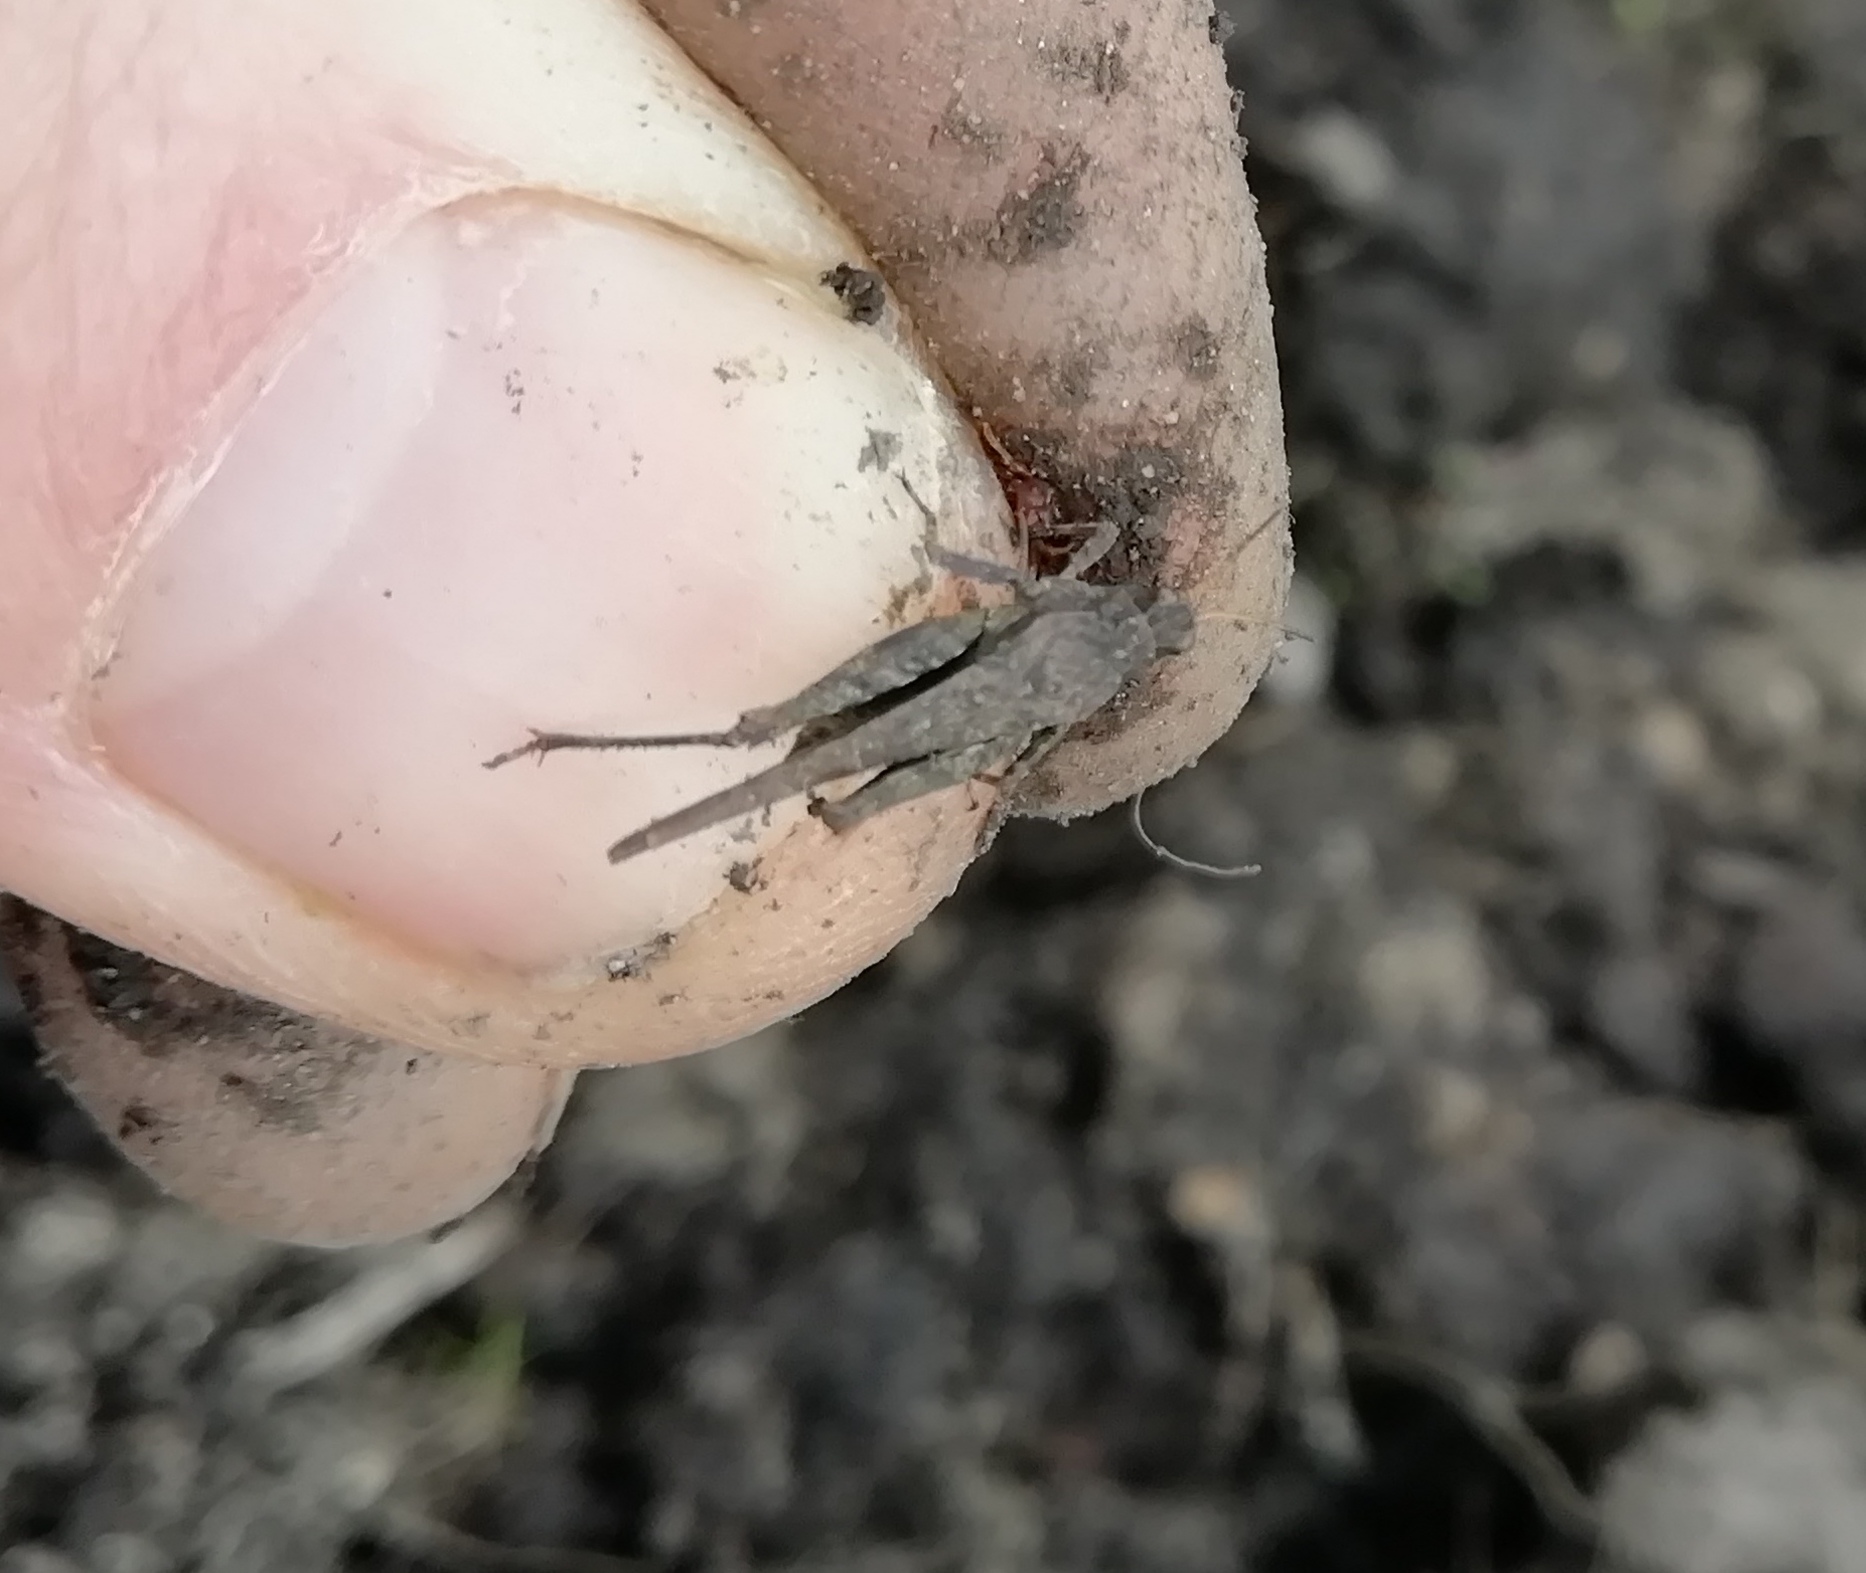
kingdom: Animalia
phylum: Arthropoda
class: Insecta
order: Orthoptera
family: Tetrigidae
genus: Tetrix
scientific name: Tetrix subulata
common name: Slender ground-hopper
